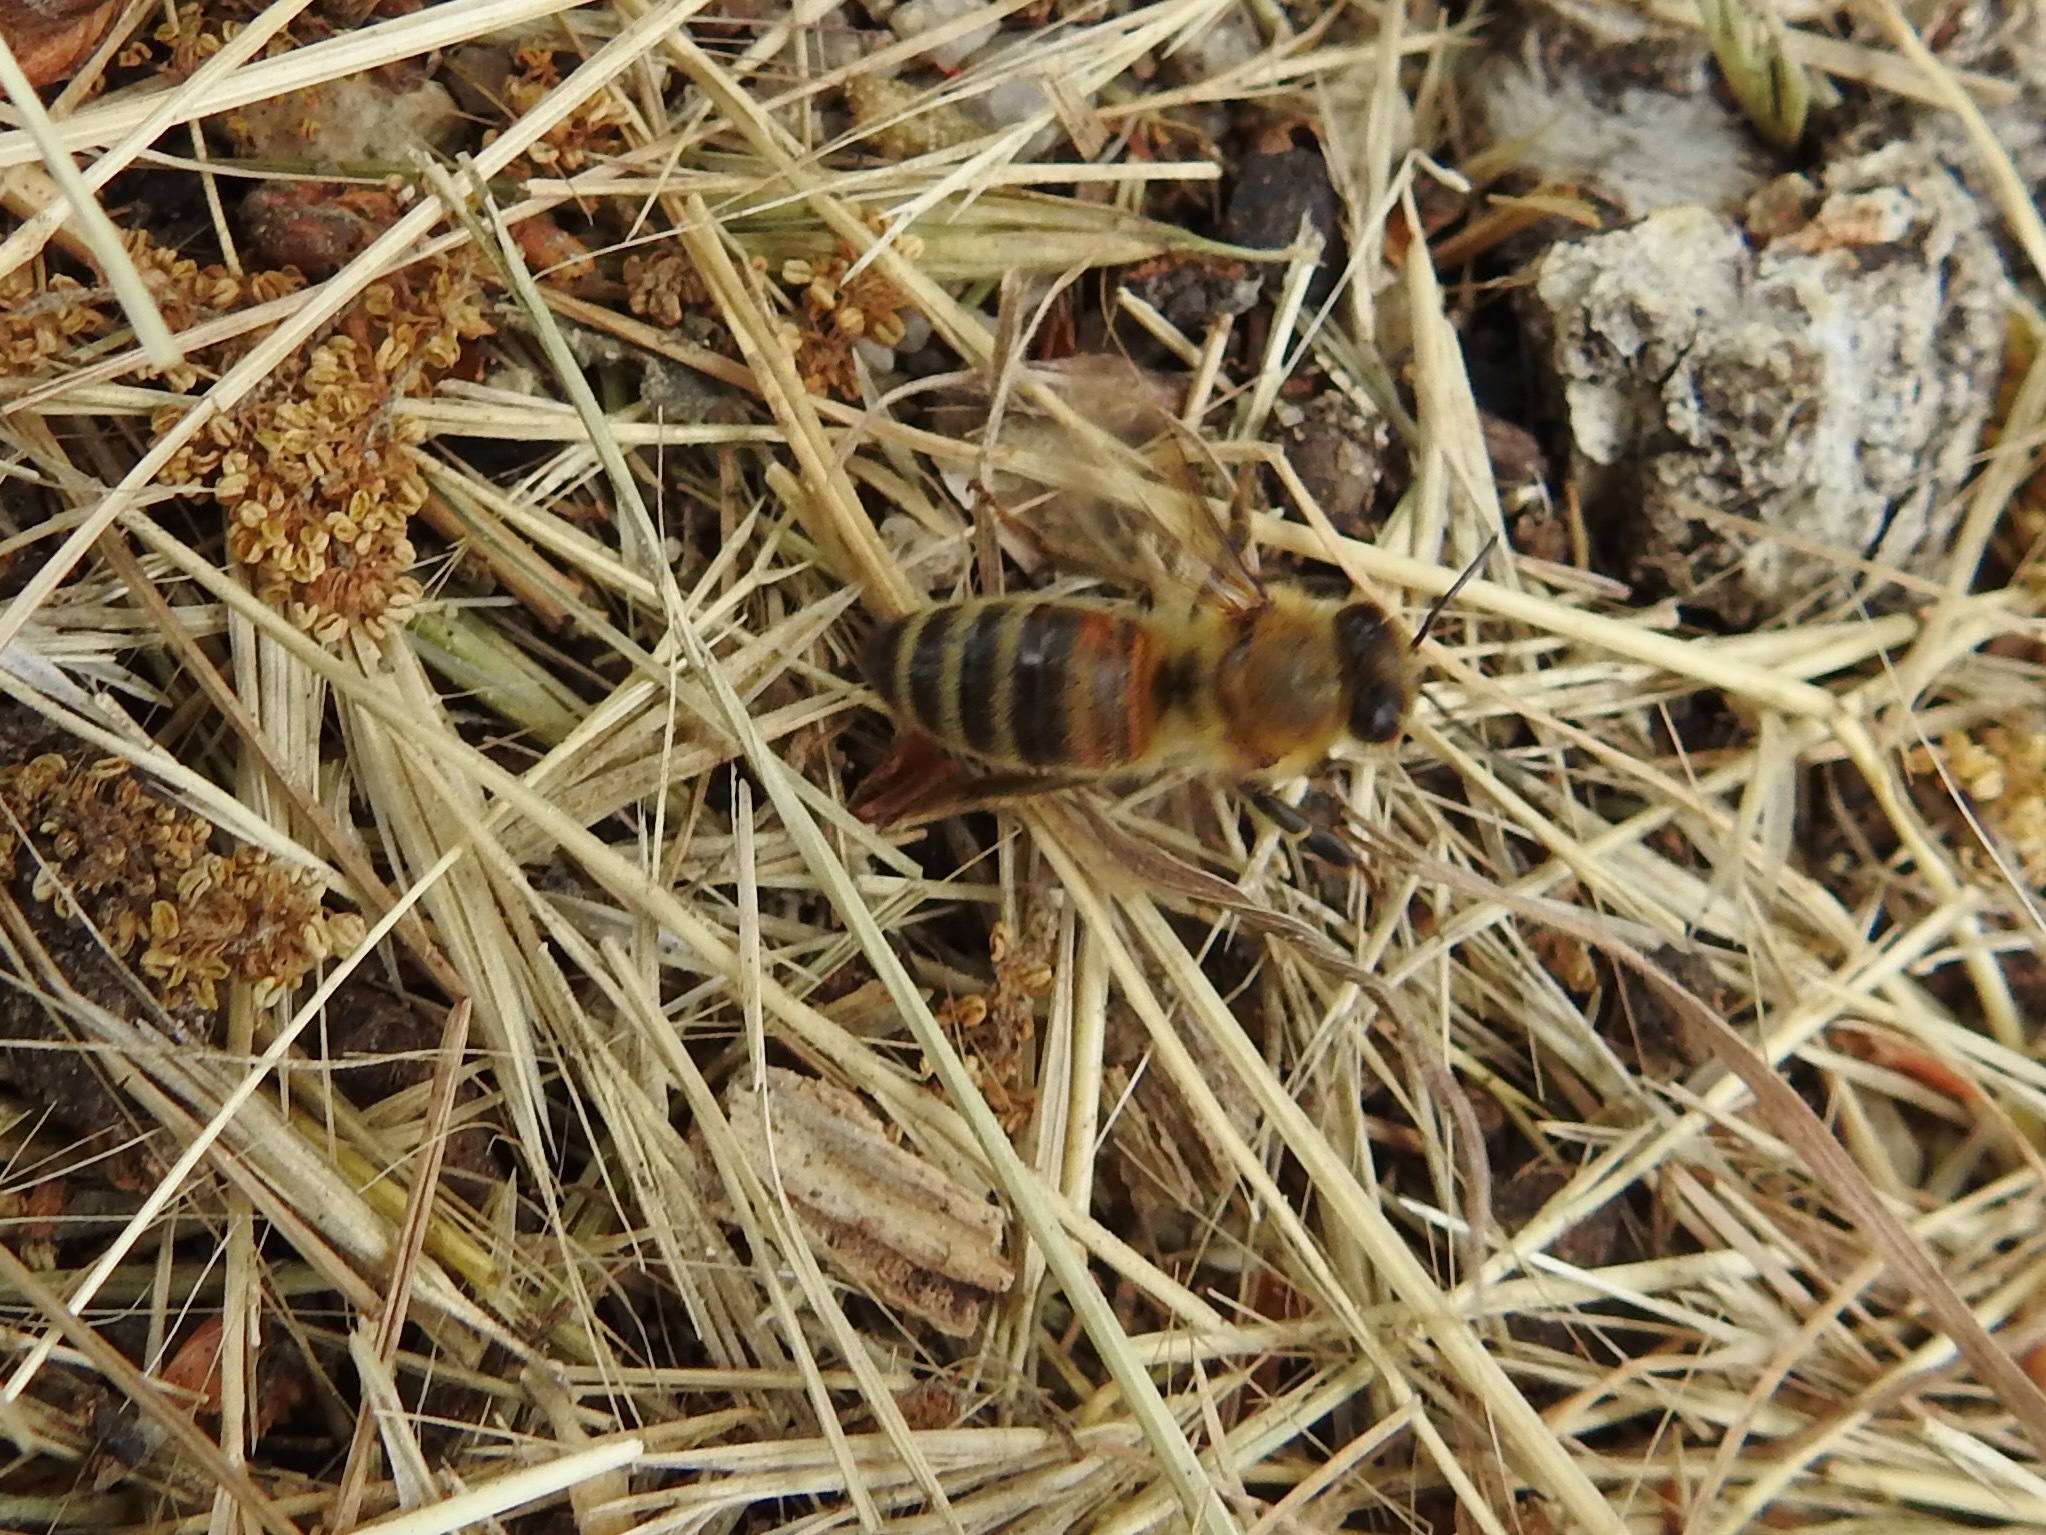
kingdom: Animalia
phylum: Arthropoda
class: Insecta
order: Hymenoptera
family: Apidae
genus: Apis
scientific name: Apis mellifera
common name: Honey bee
